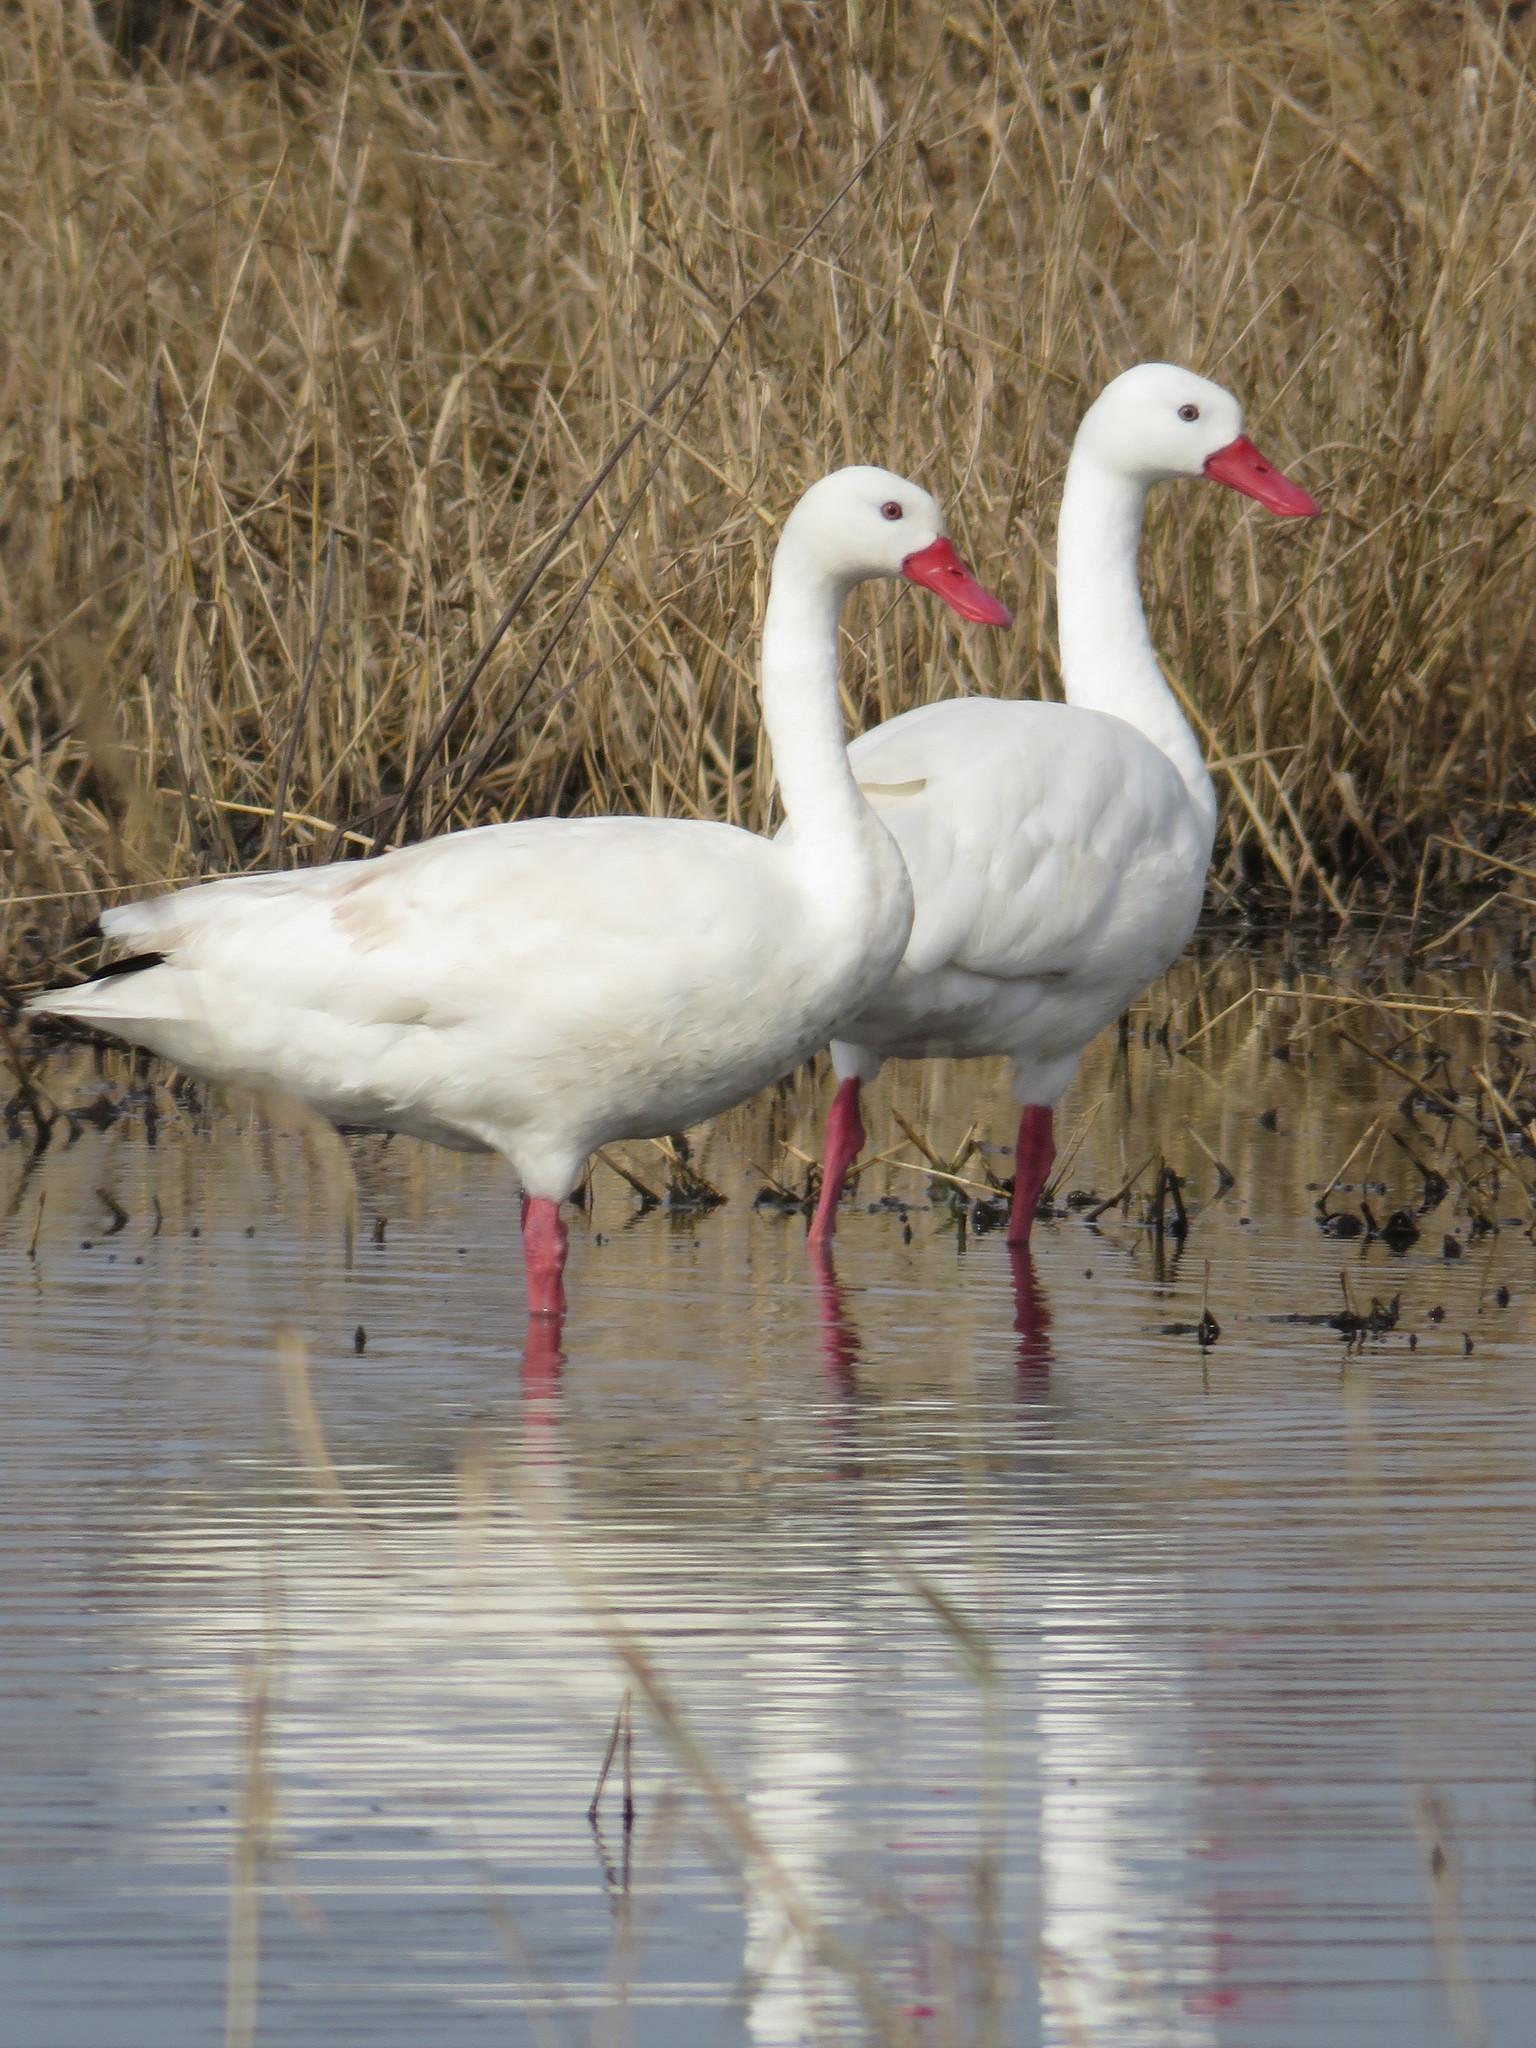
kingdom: Animalia
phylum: Chordata
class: Aves
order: Anseriformes
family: Anatidae
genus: Coscoroba
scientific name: Coscoroba coscoroba
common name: Coscoroba swan
